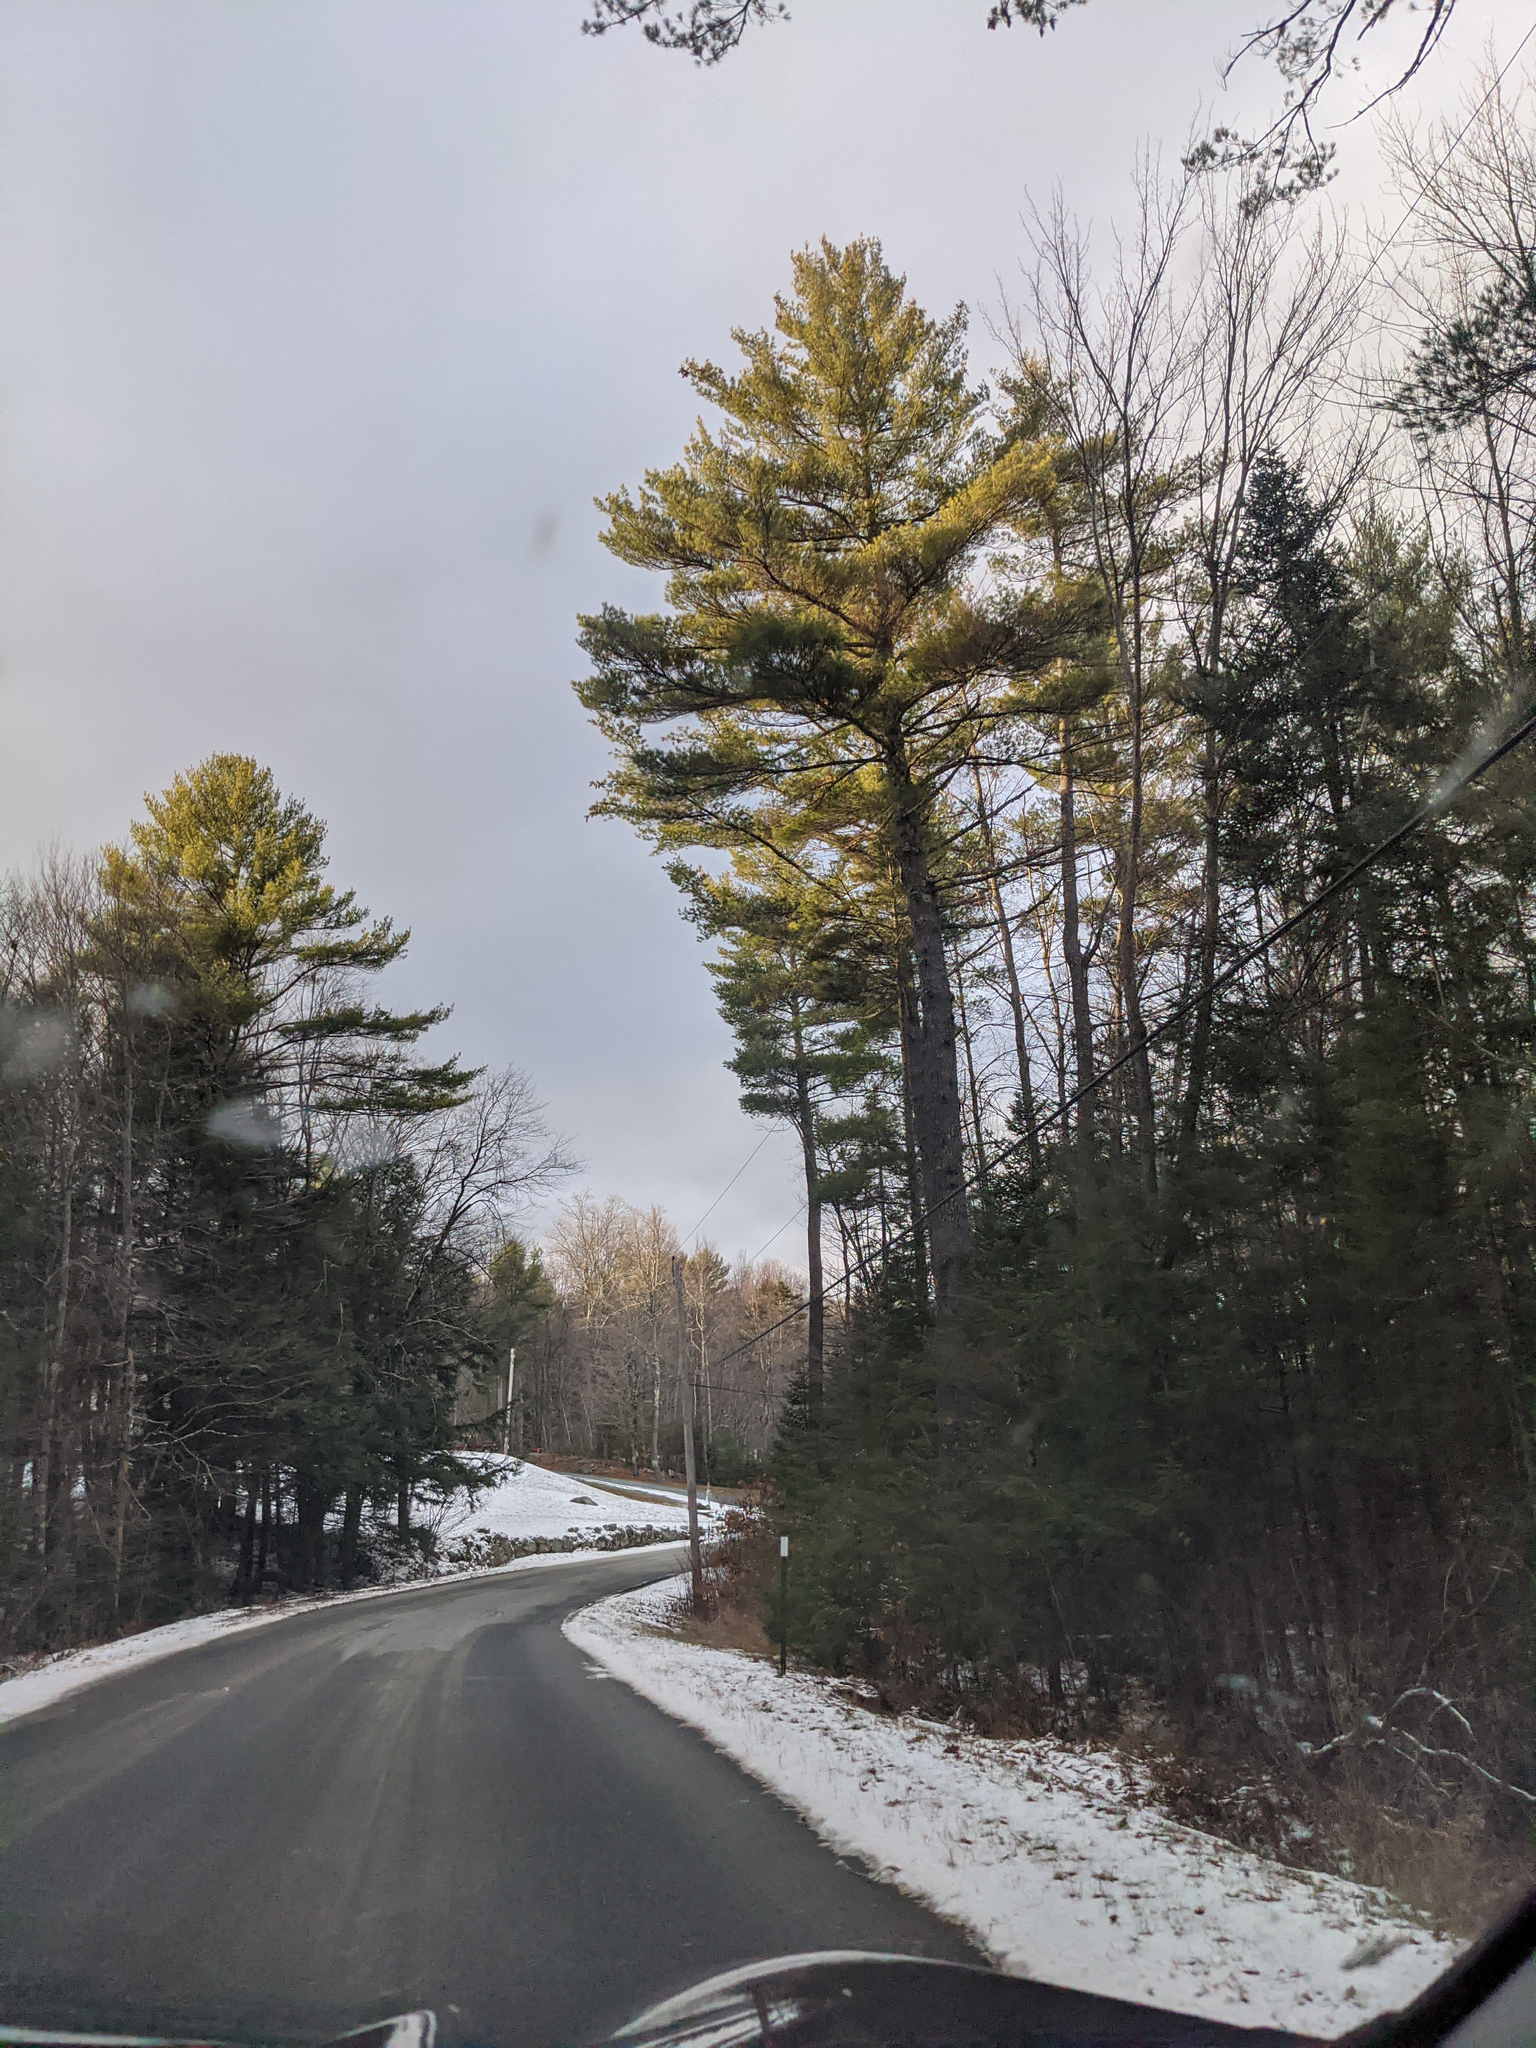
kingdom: Plantae
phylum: Tracheophyta
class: Pinopsida
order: Pinales
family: Pinaceae
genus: Pinus
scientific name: Pinus strobus
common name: Weymouth pine
